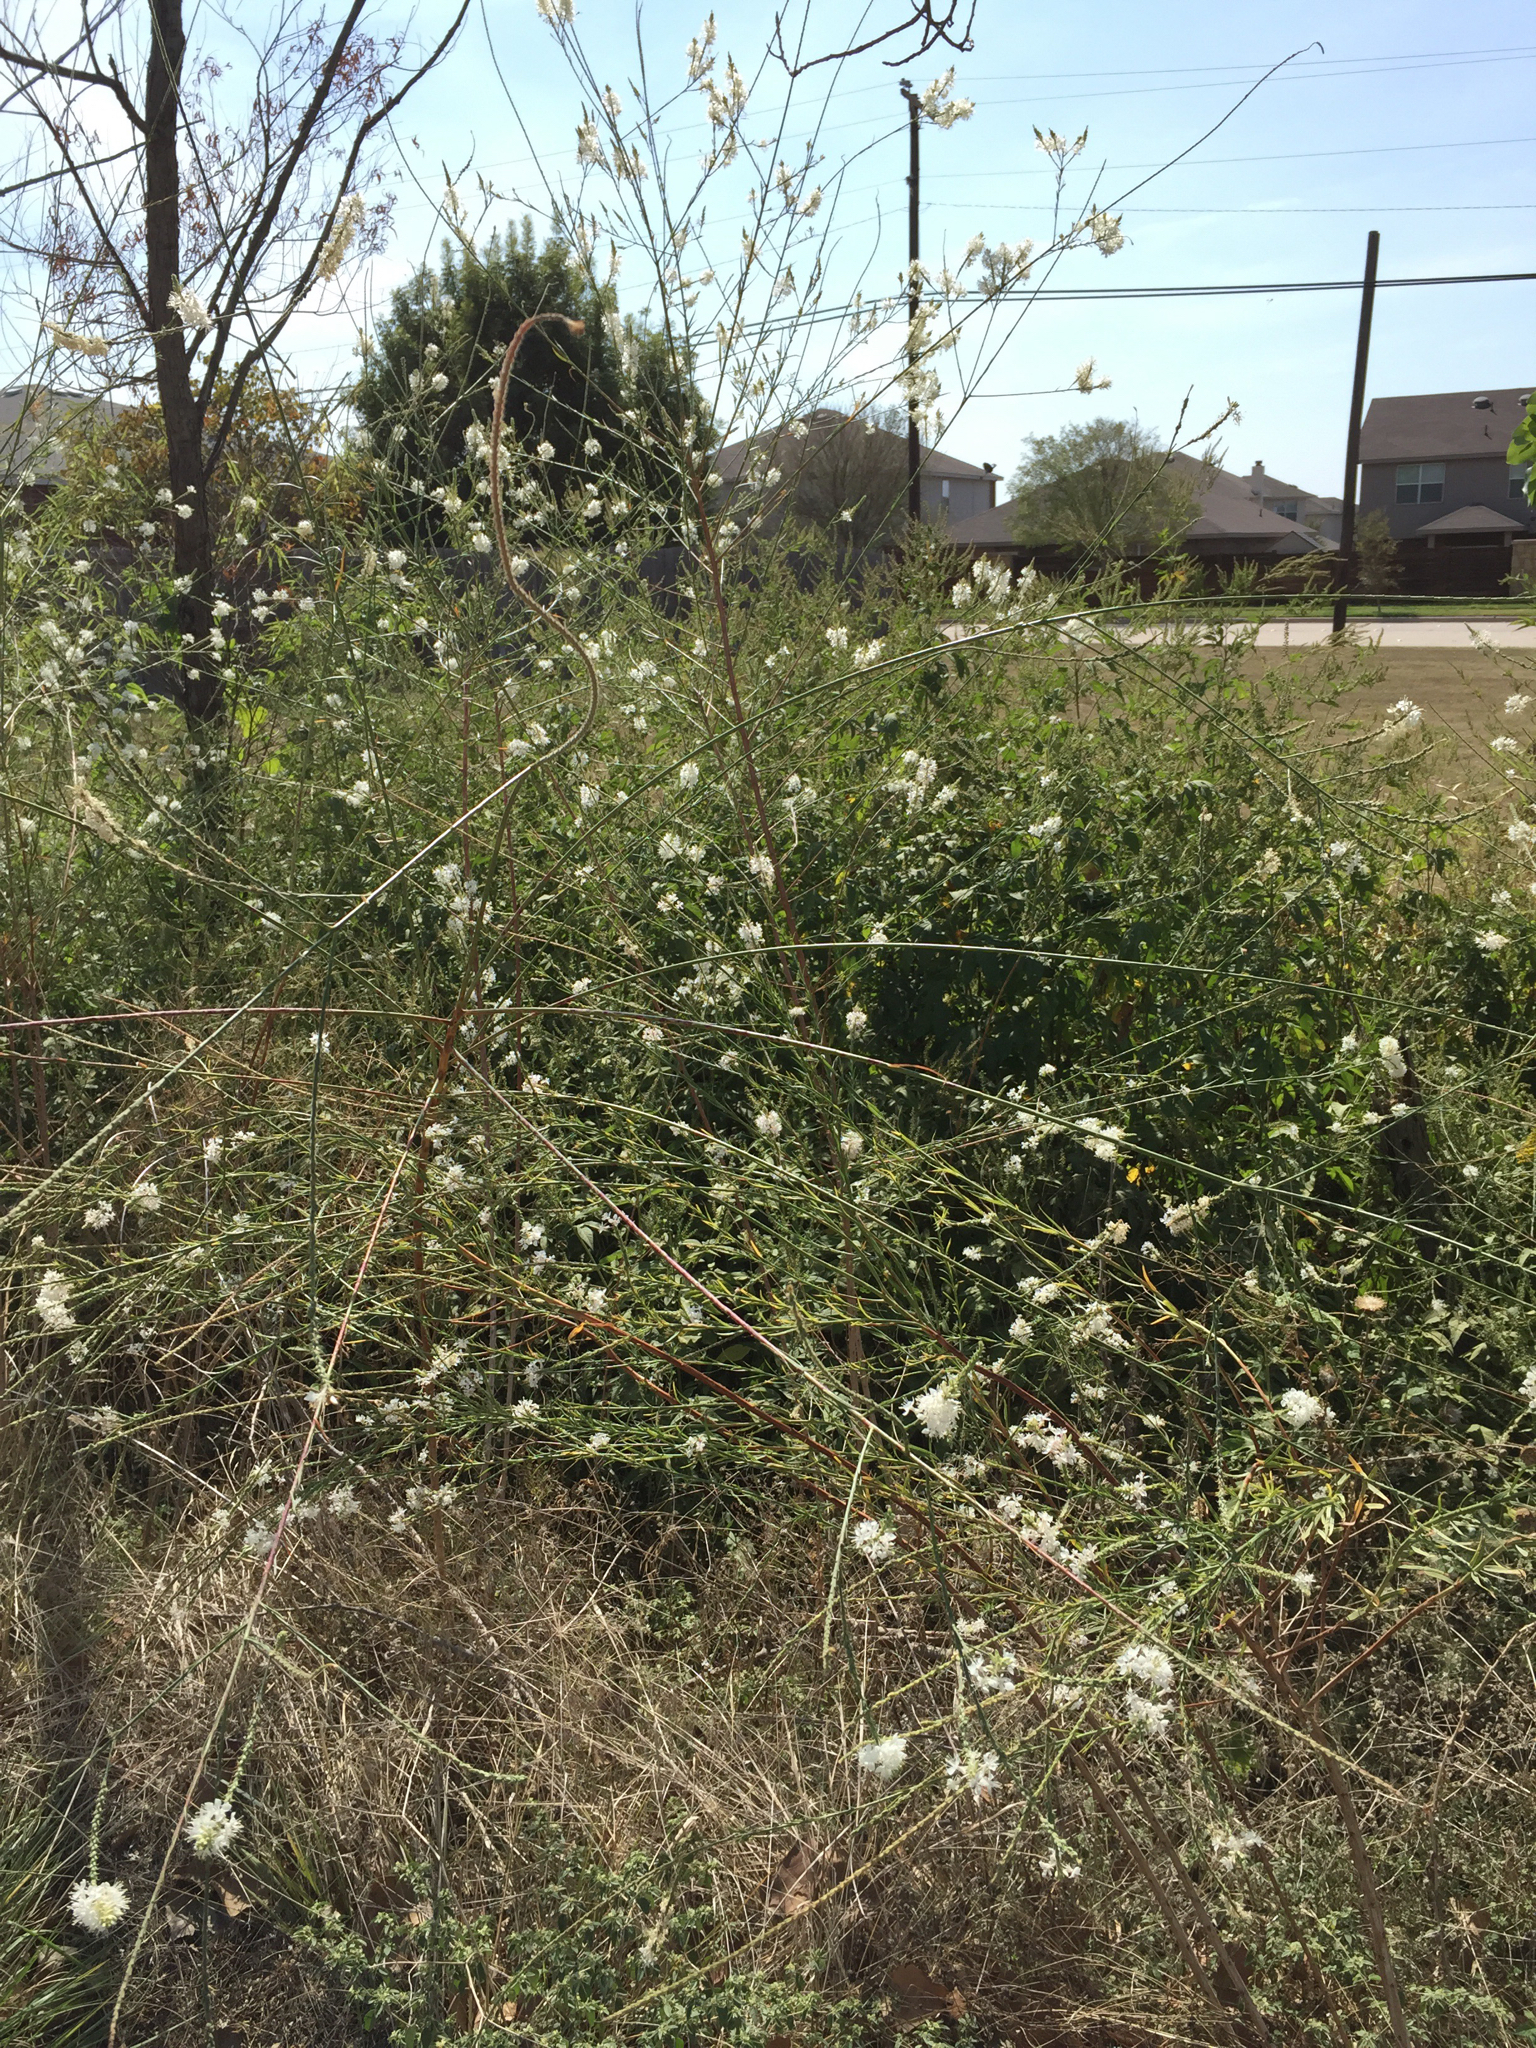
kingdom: Plantae
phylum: Tracheophyta
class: Magnoliopsida
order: Myrtales
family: Onagraceae
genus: Oenothera
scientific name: Oenothera glaucifolia
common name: False gaura
